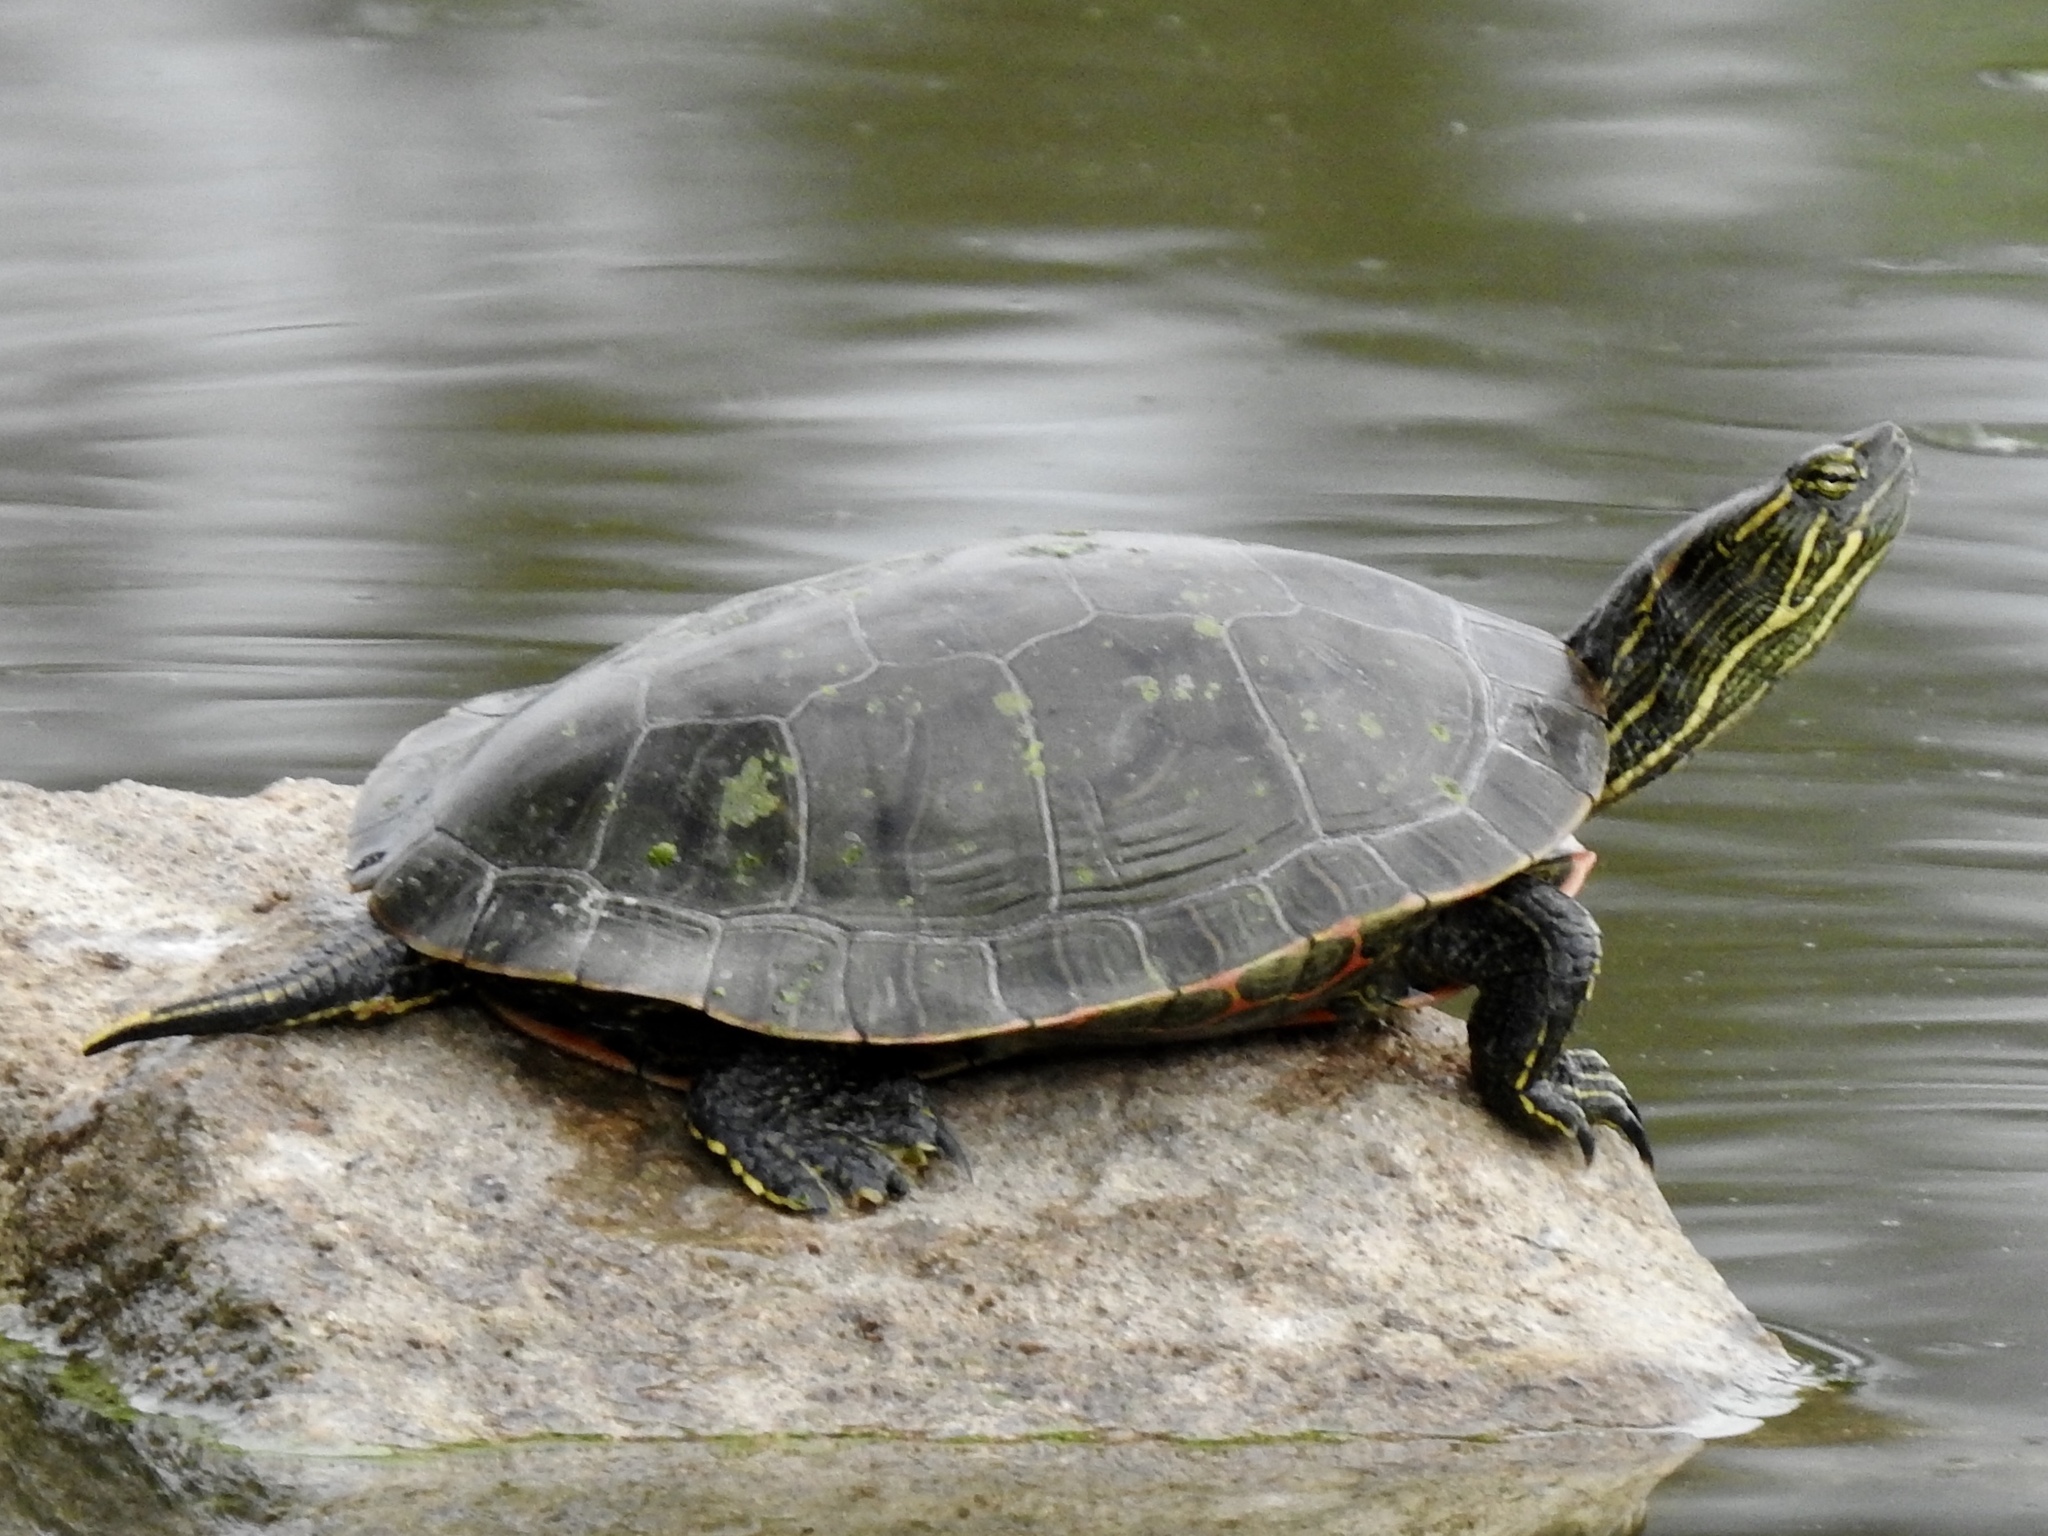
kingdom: Animalia
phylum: Chordata
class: Testudines
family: Emydidae
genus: Chrysemys
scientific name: Chrysemys picta
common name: Painted turtle
